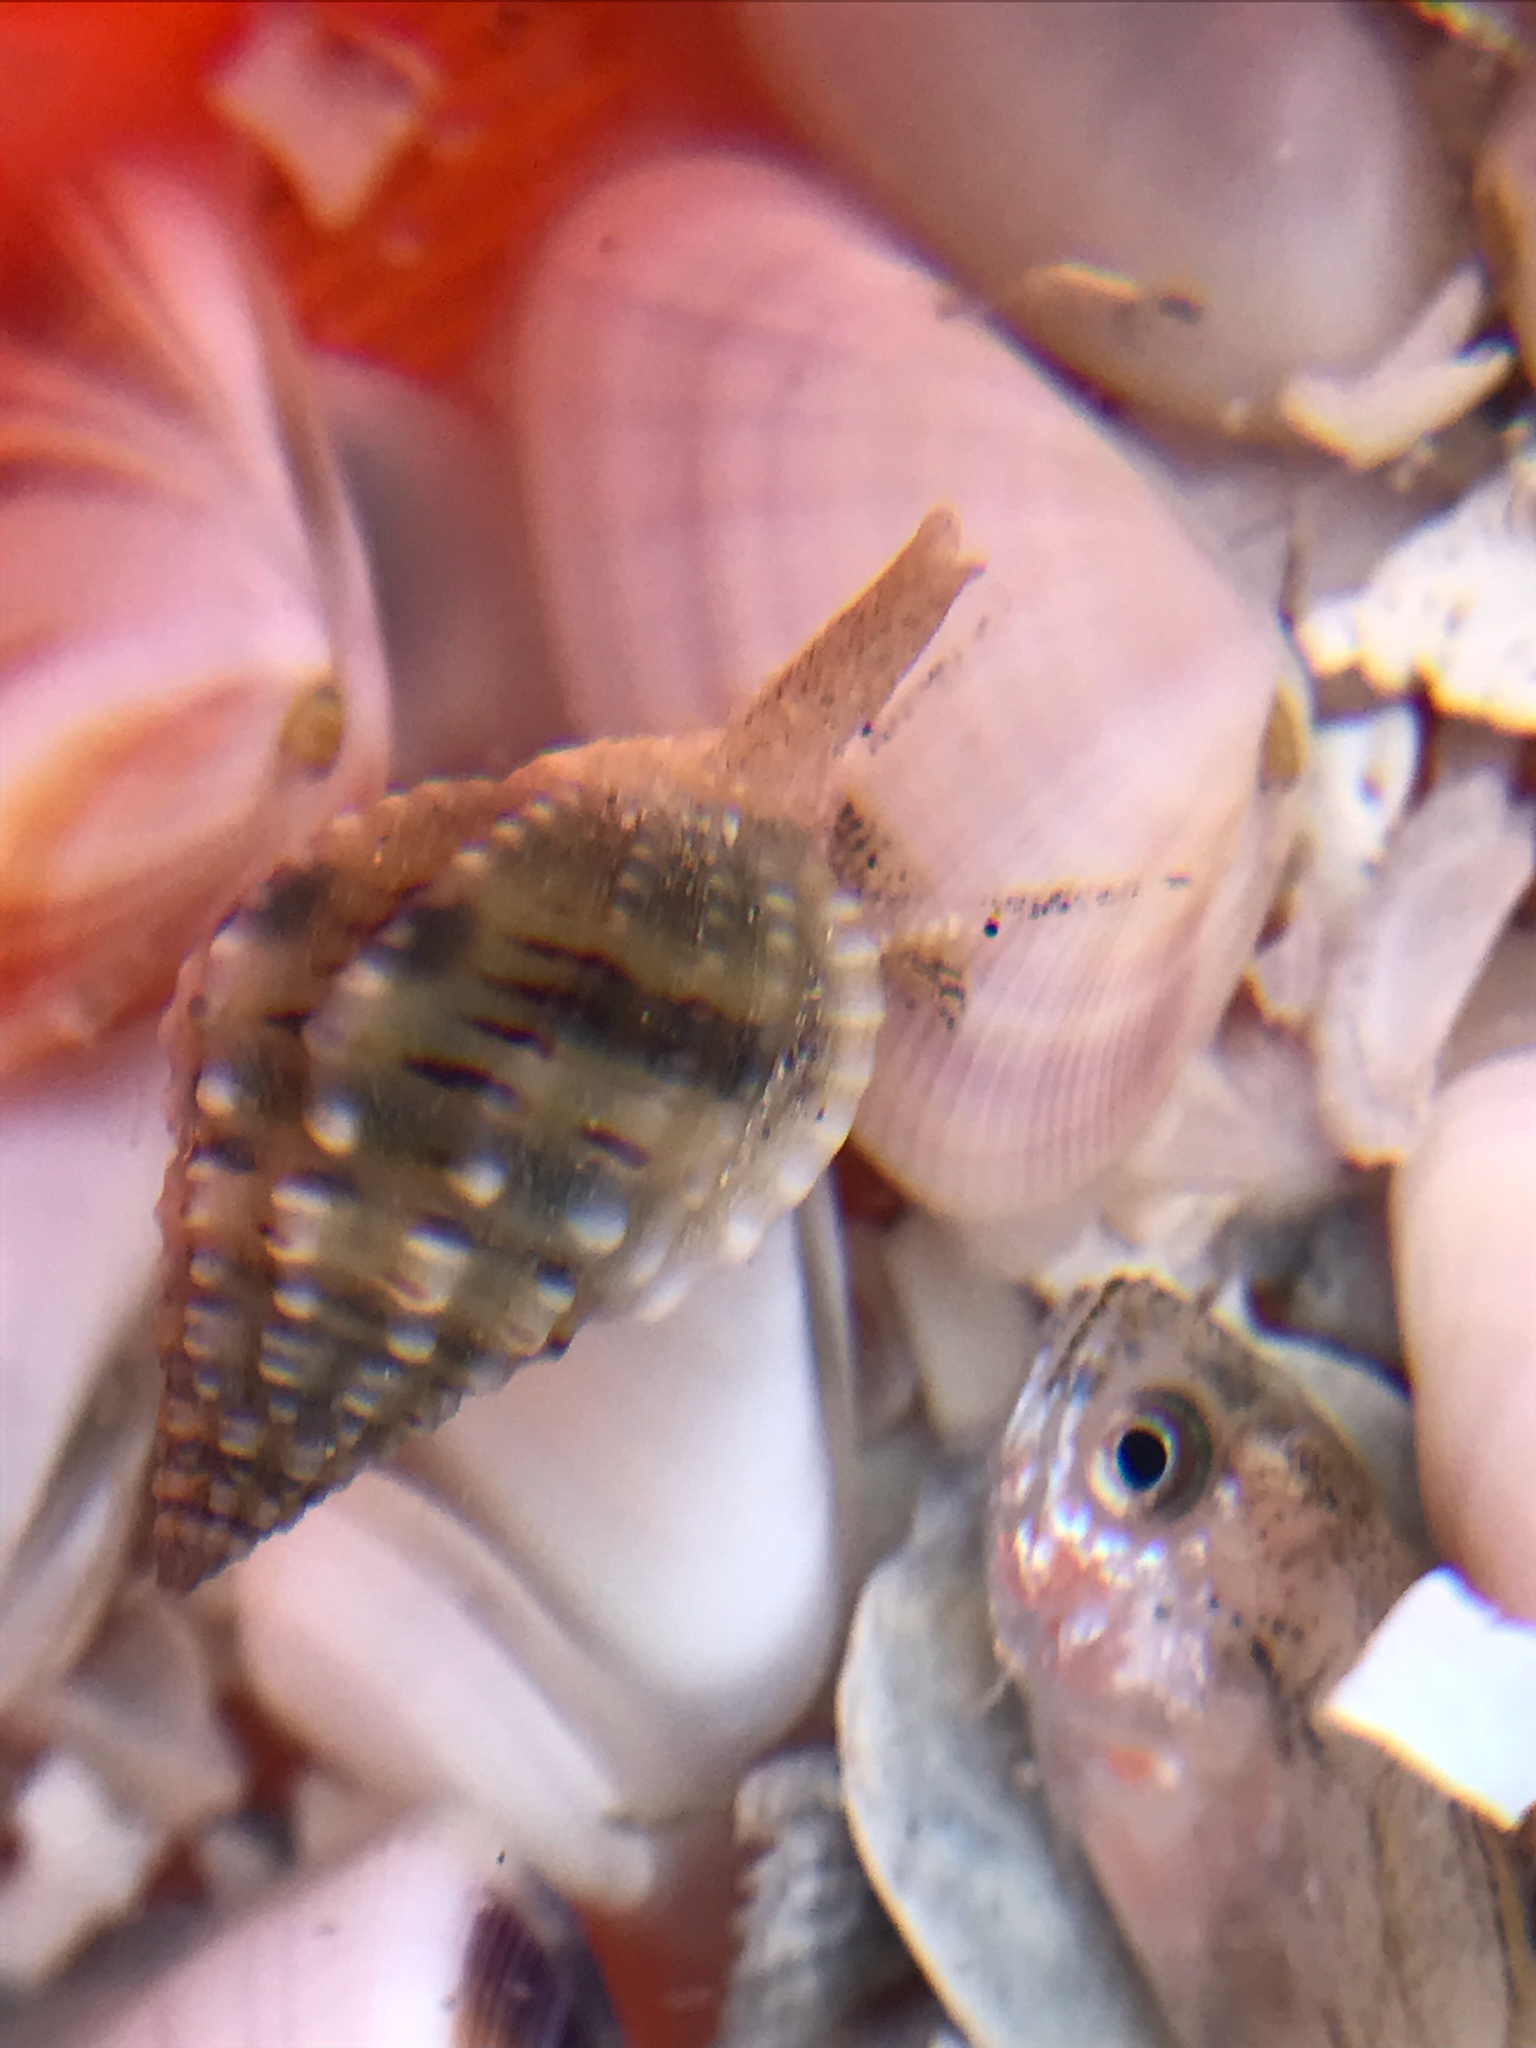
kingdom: Animalia
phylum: Mollusca
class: Gastropoda
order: Neogastropoda
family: Nassariidae
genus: Phrontis
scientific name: Phrontis vibex
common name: Bruised nassa
